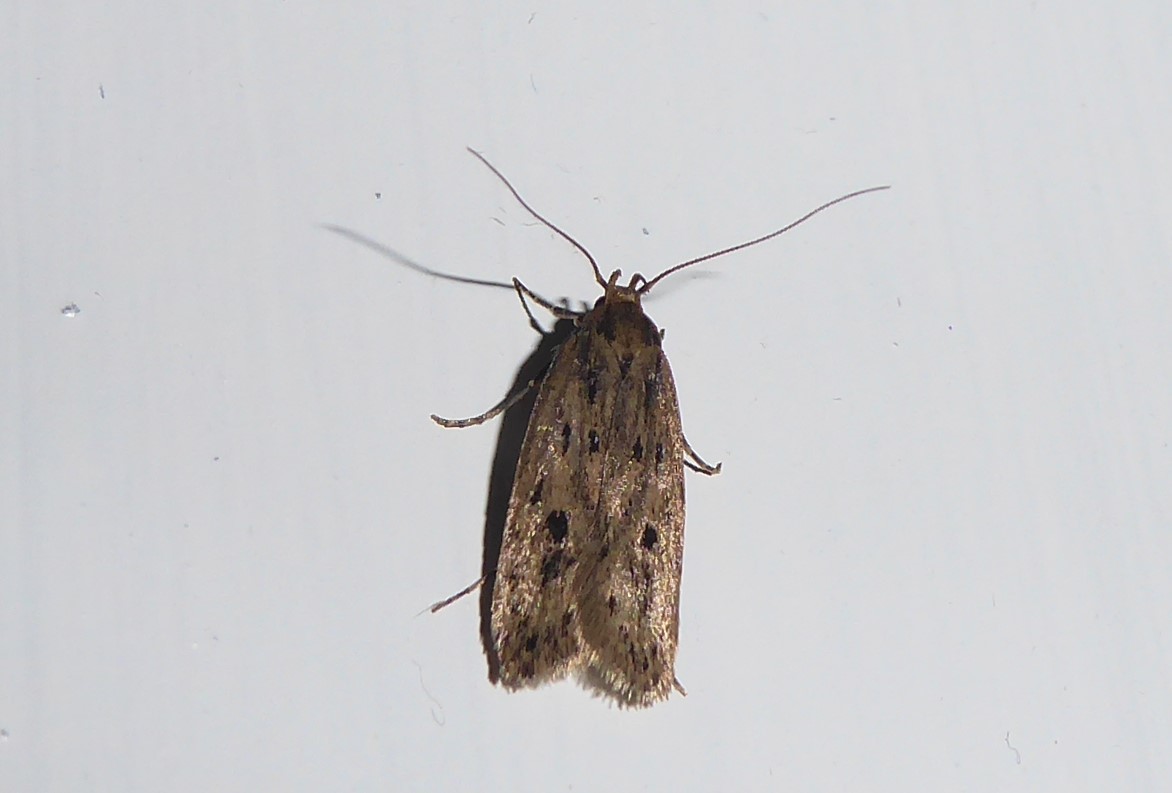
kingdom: Animalia
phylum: Arthropoda
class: Insecta
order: Lepidoptera
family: Oecophoridae
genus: Hofmannophila
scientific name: Hofmannophila pseudospretella
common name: Brown house moth
